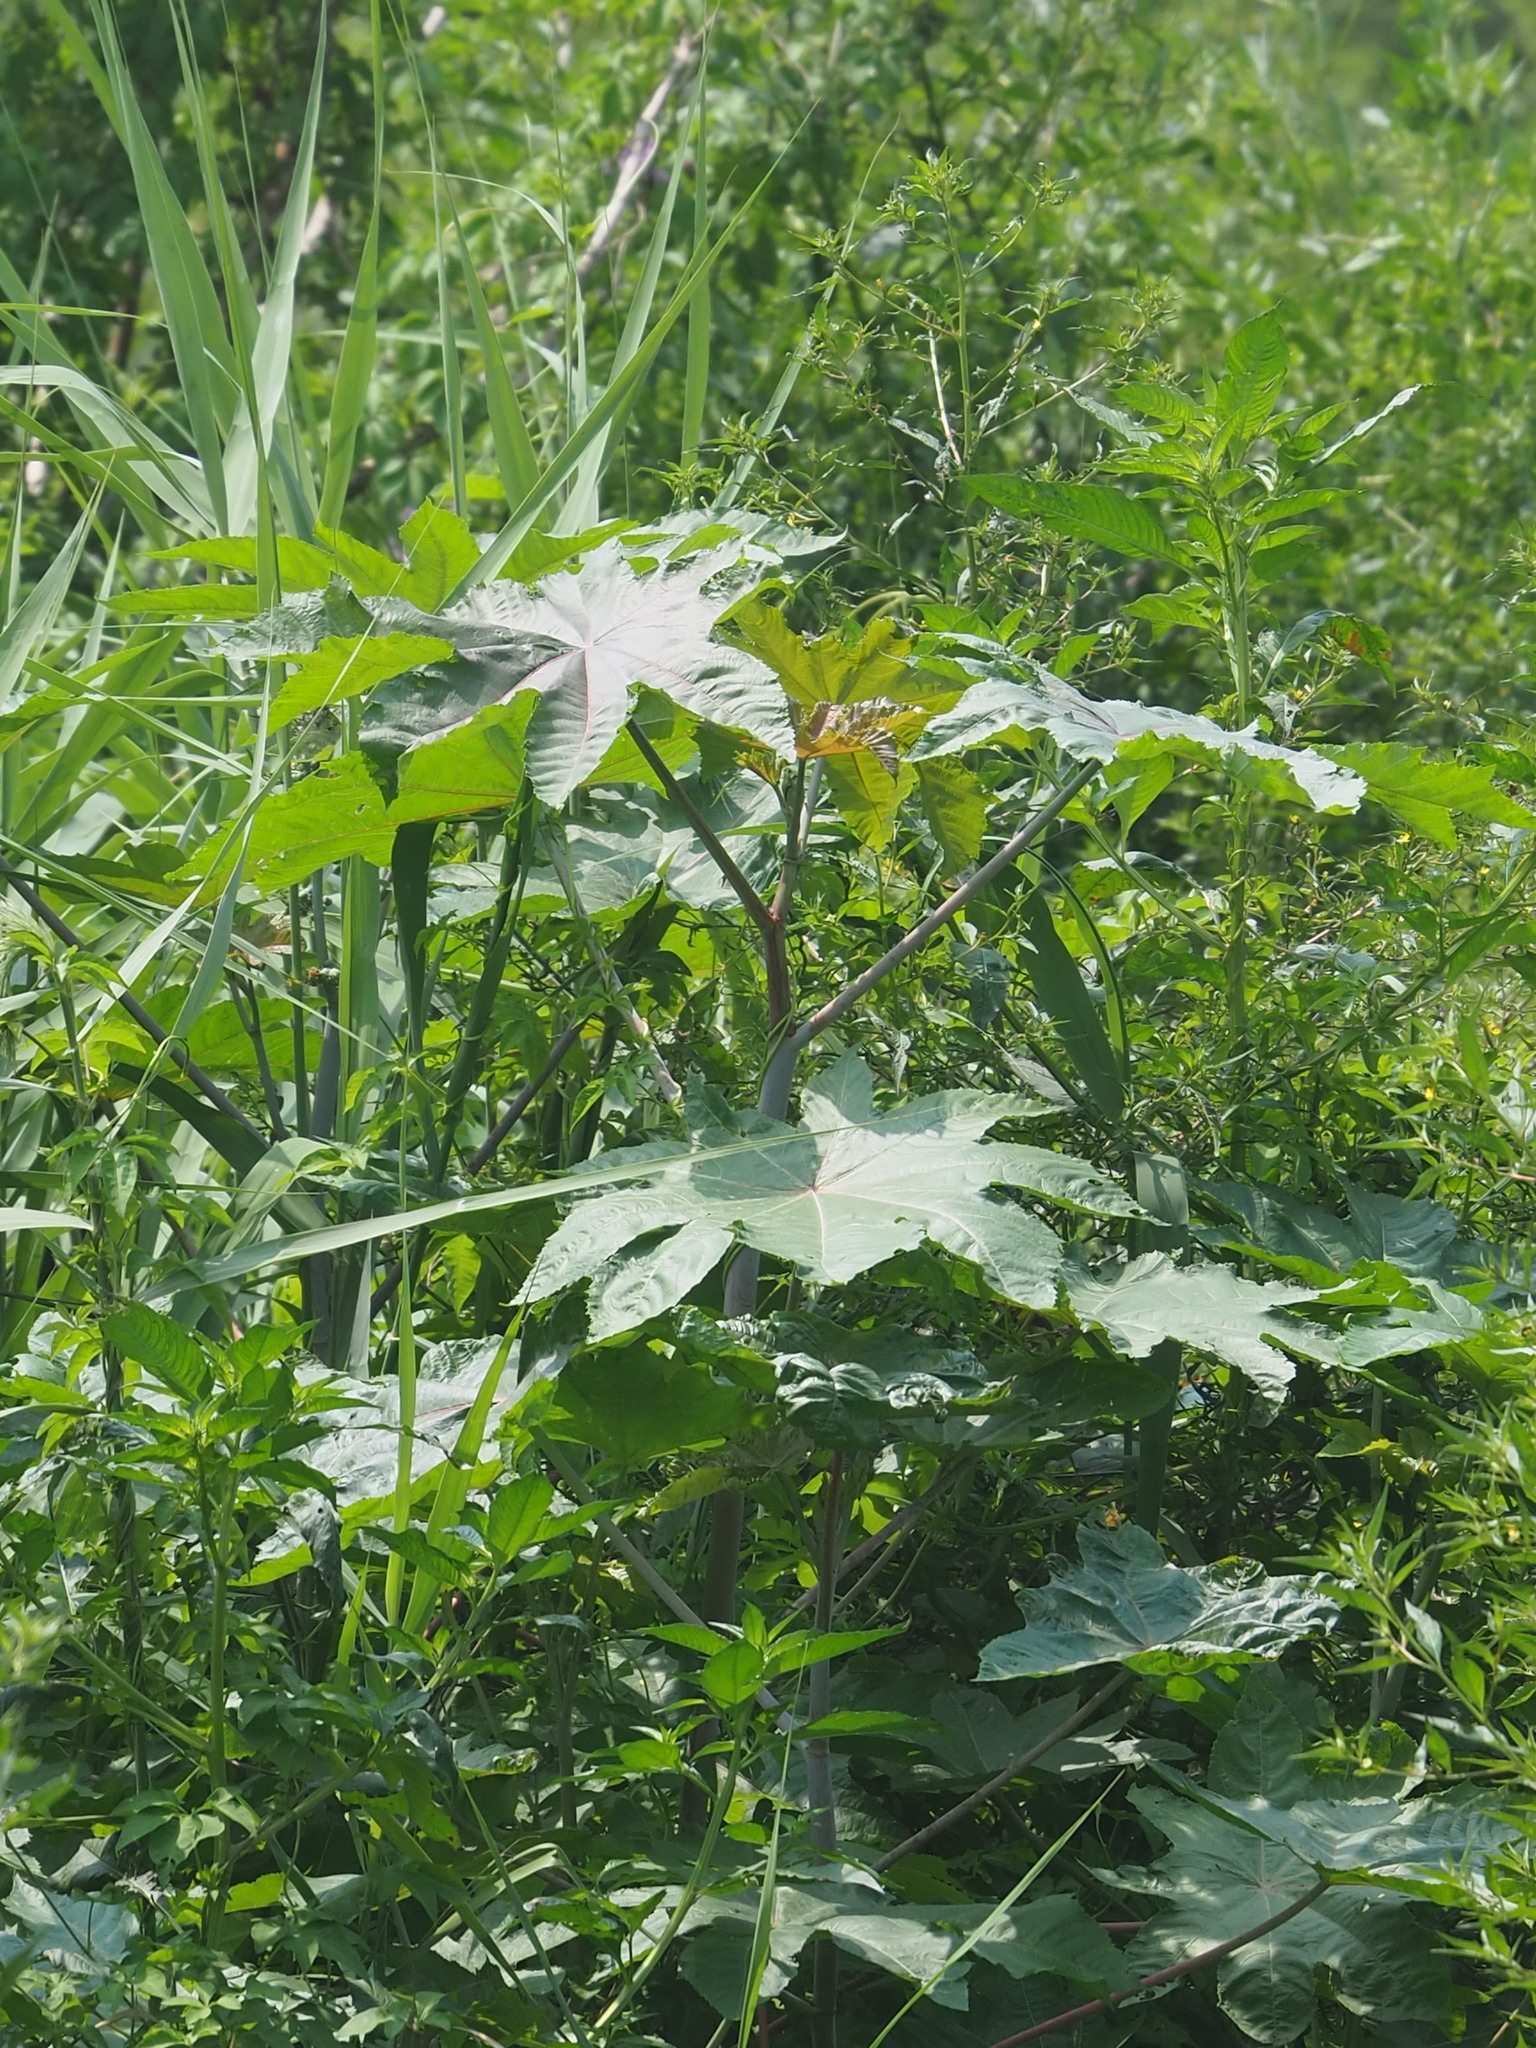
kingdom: Plantae
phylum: Tracheophyta
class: Magnoliopsida
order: Malpighiales
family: Euphorbiaceae
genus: Ricinus
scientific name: Ricinus communis
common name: Castor-oil-plant
